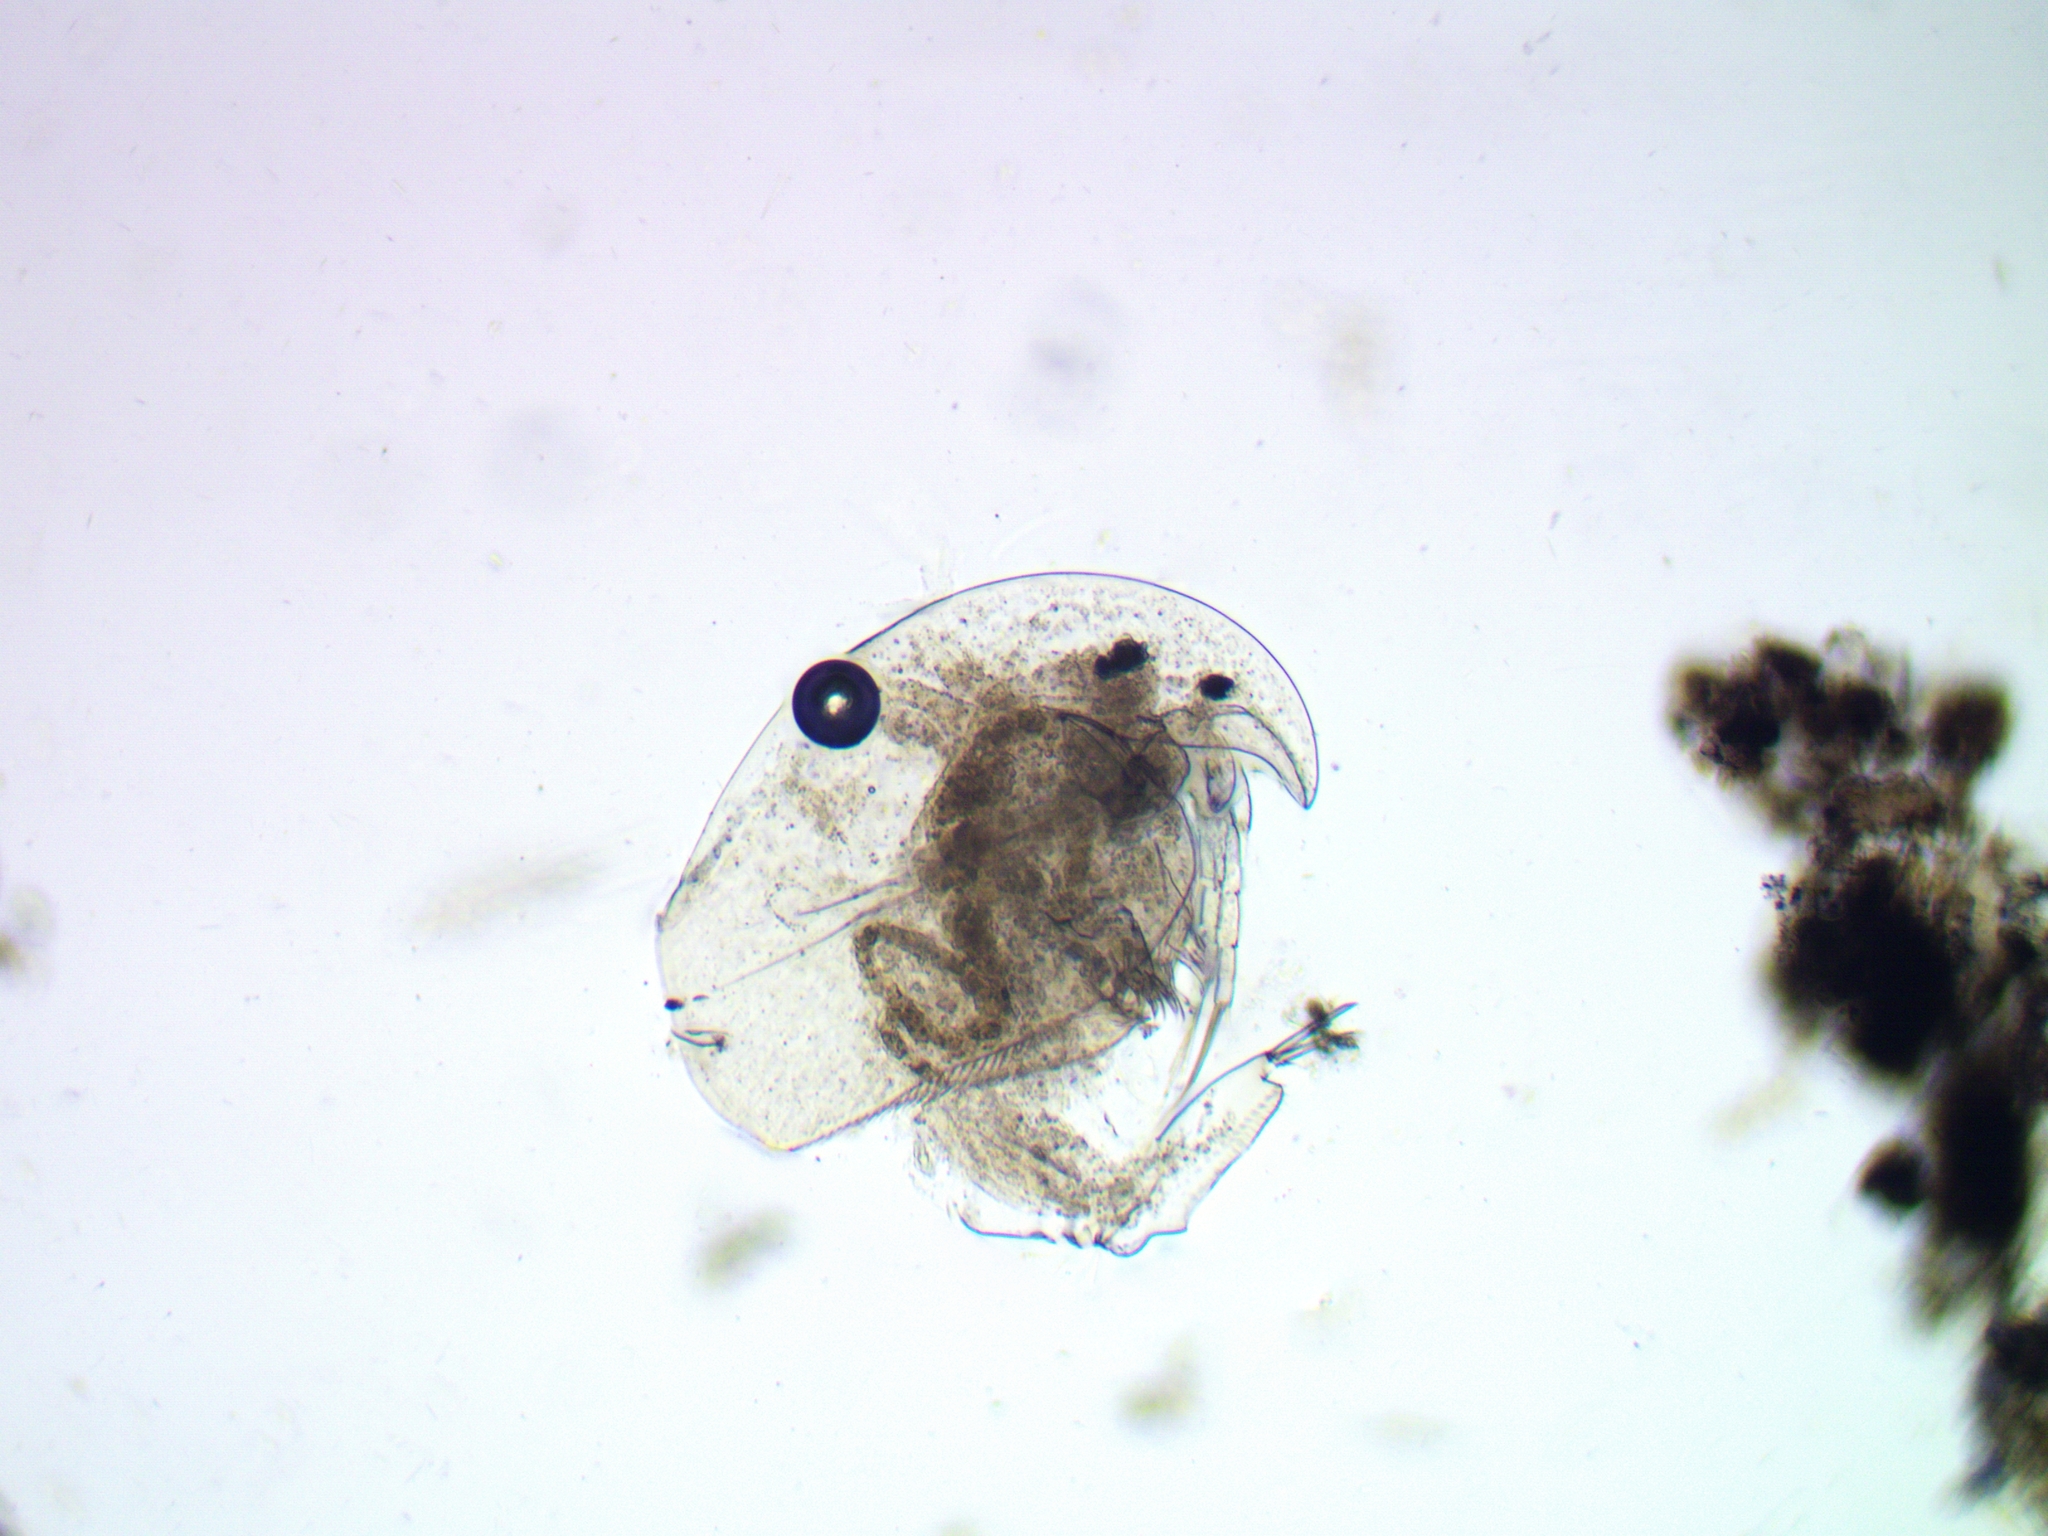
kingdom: Animalia
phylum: Arthropoda
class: Branchiopoda
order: Diplostraca
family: Chydoridae
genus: Acroperus
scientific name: Acroperus harpae
